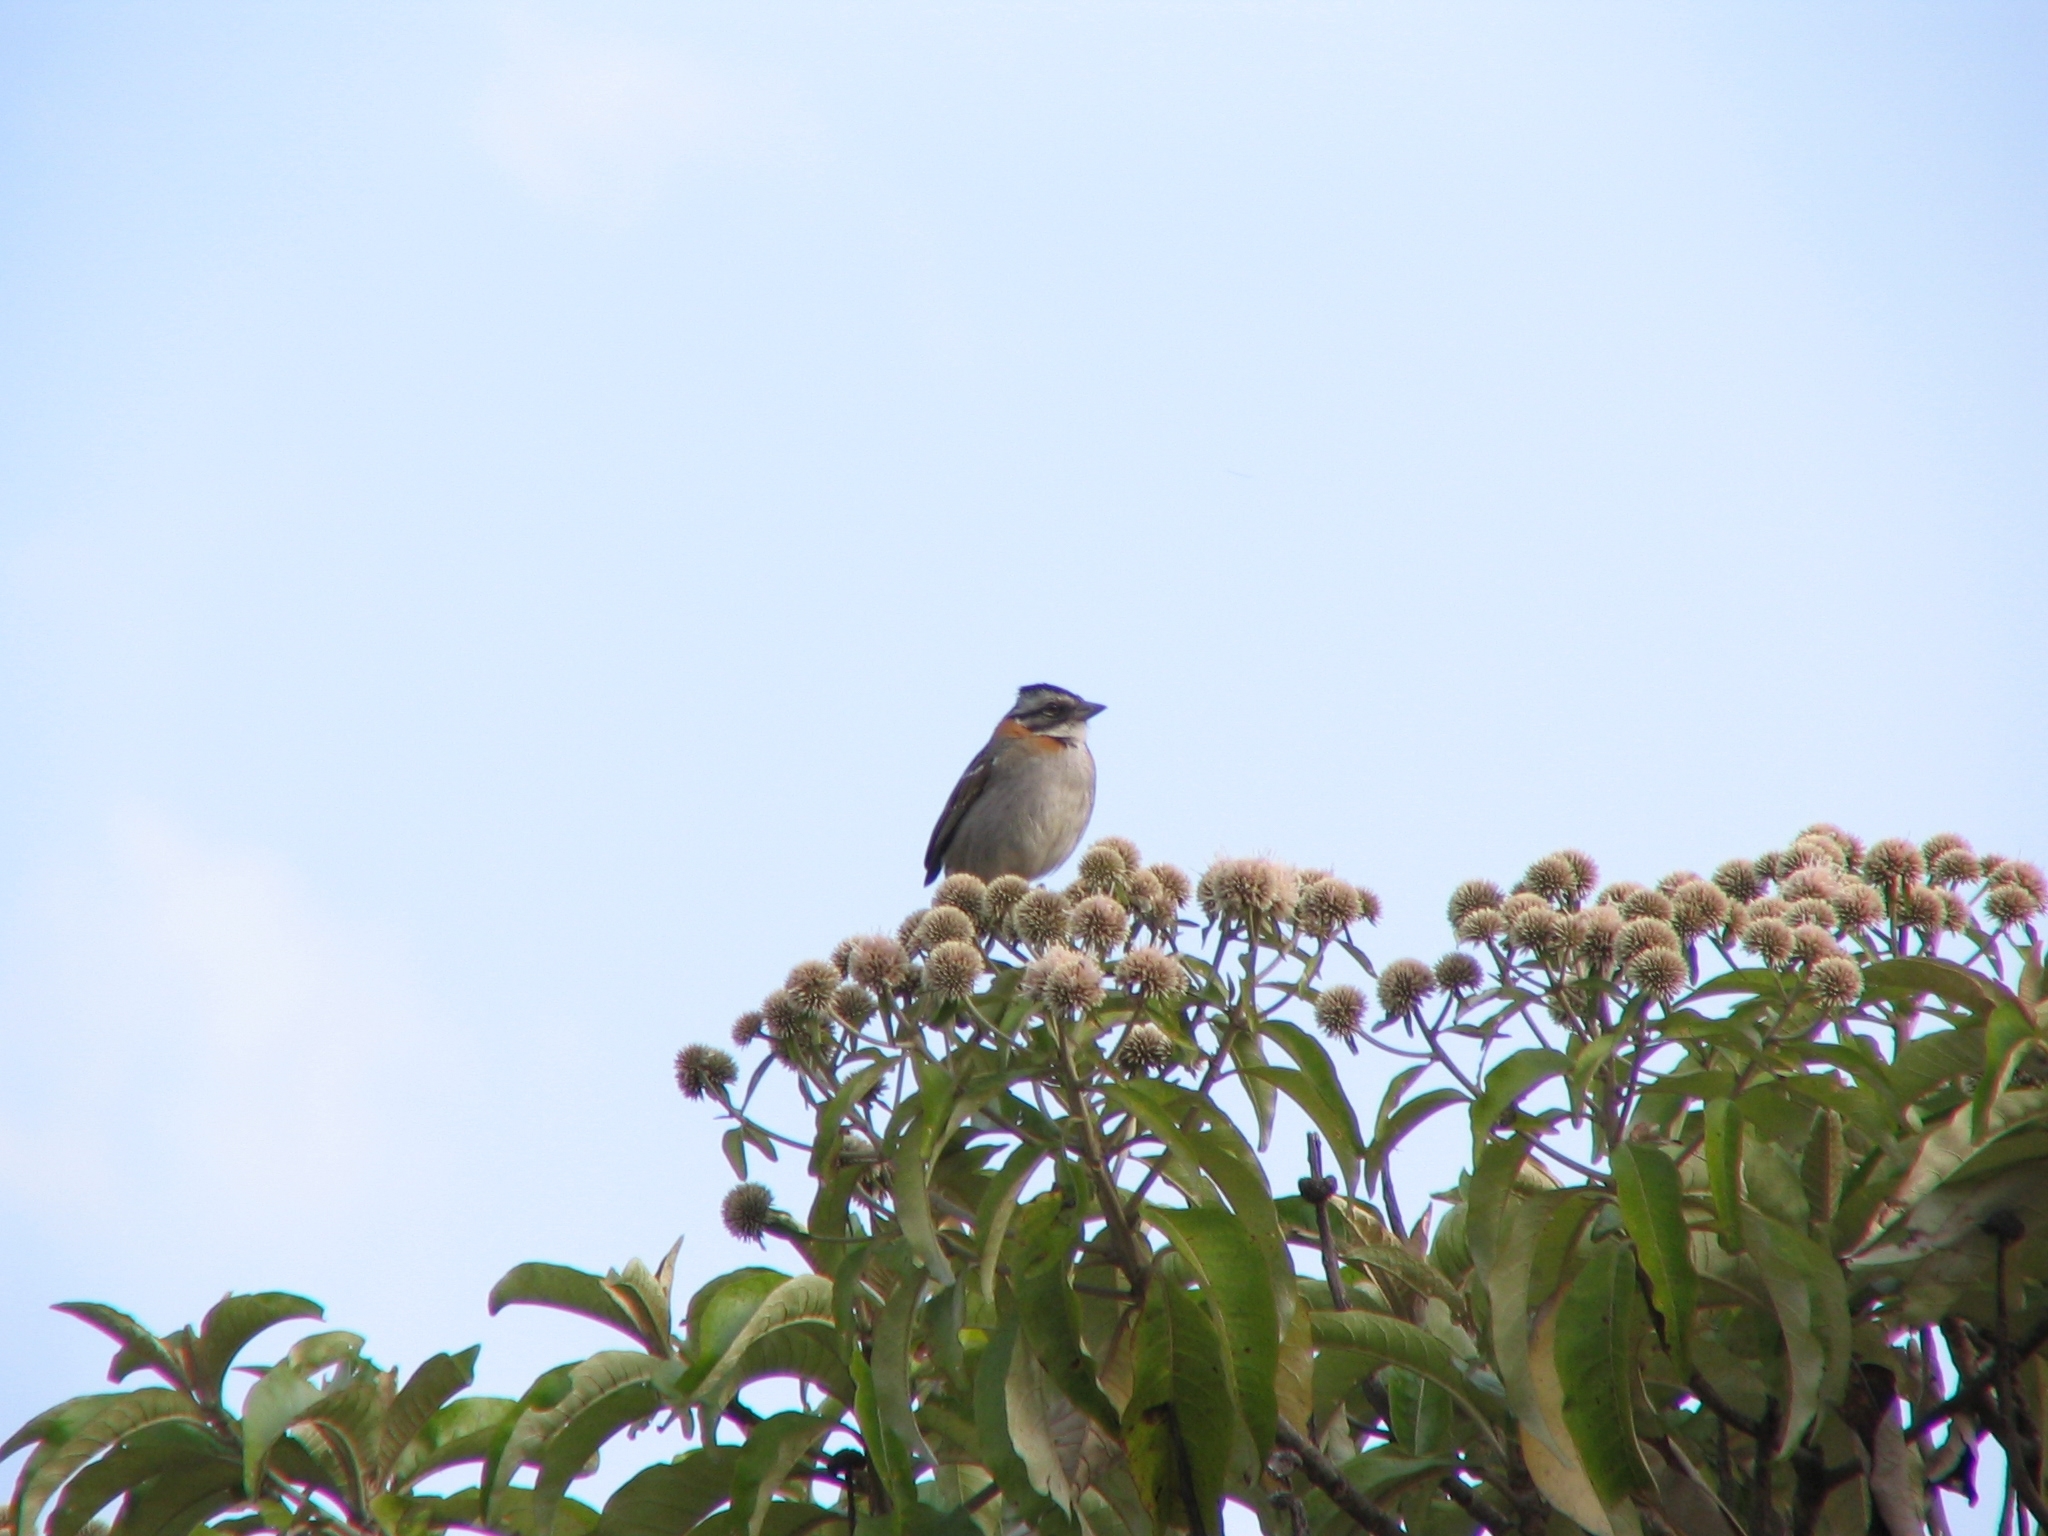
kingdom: Animalia
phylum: Chordata
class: Aves
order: Passeriformes
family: Passerellidae
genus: Zonotrichia
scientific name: Zonotrichia capensis
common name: Rufous-collared sparrow
